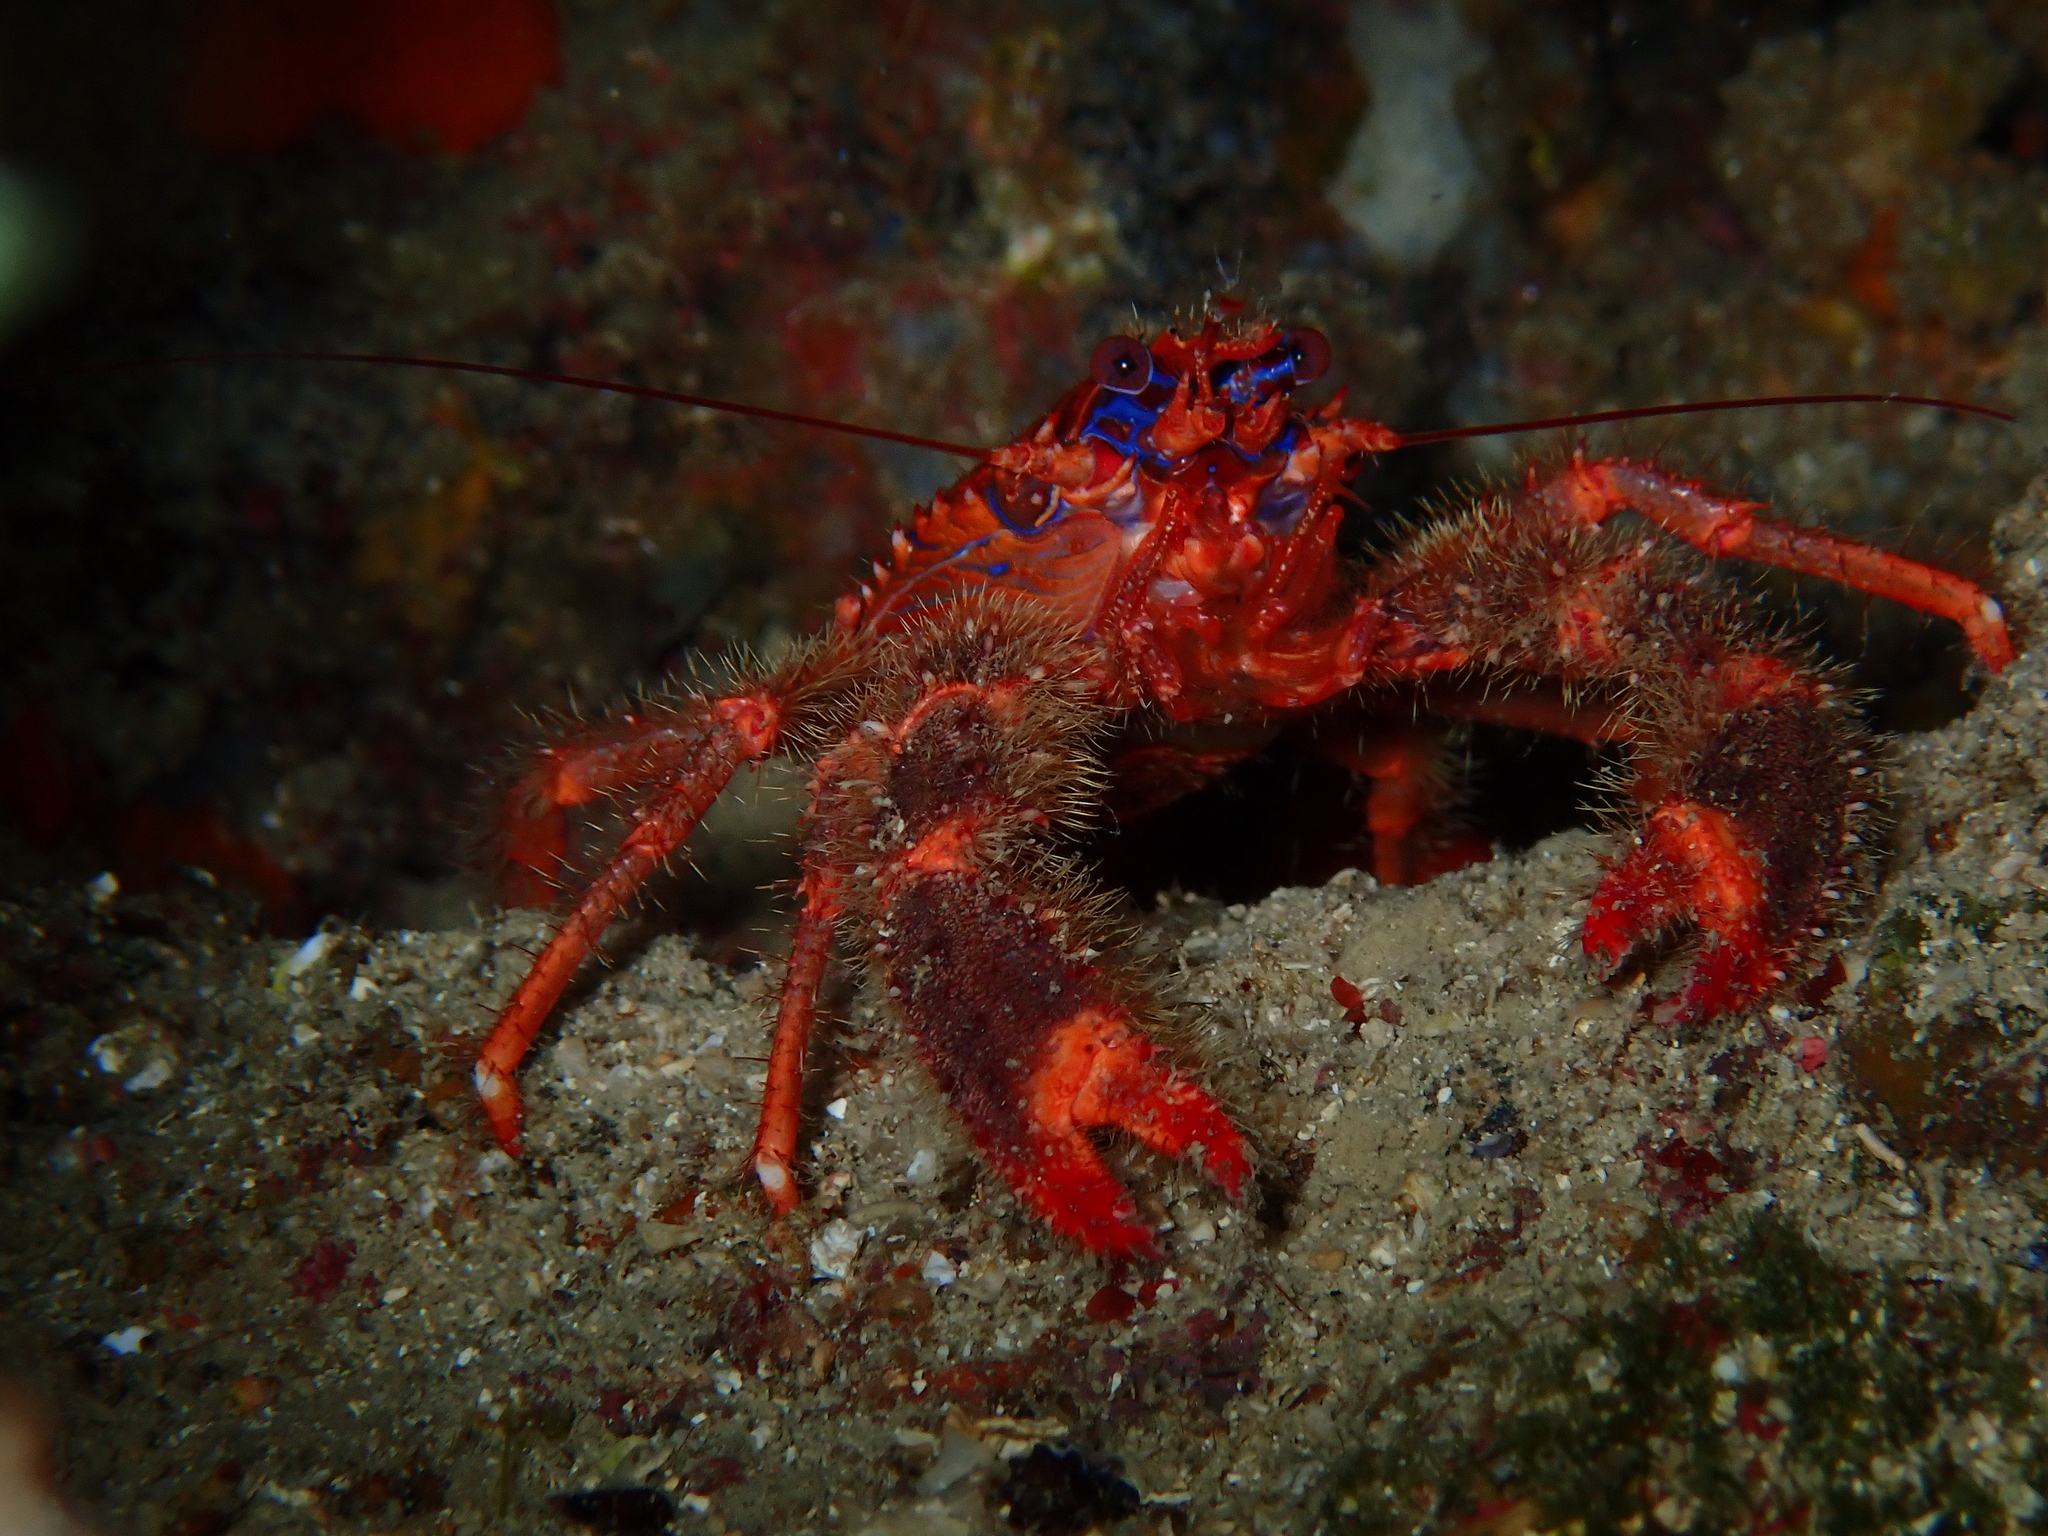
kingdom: Animalia
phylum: Arthropoda
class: Malacostraca
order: Decapoda
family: Galatheidae
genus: Galathea
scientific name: Galathea strigosa
